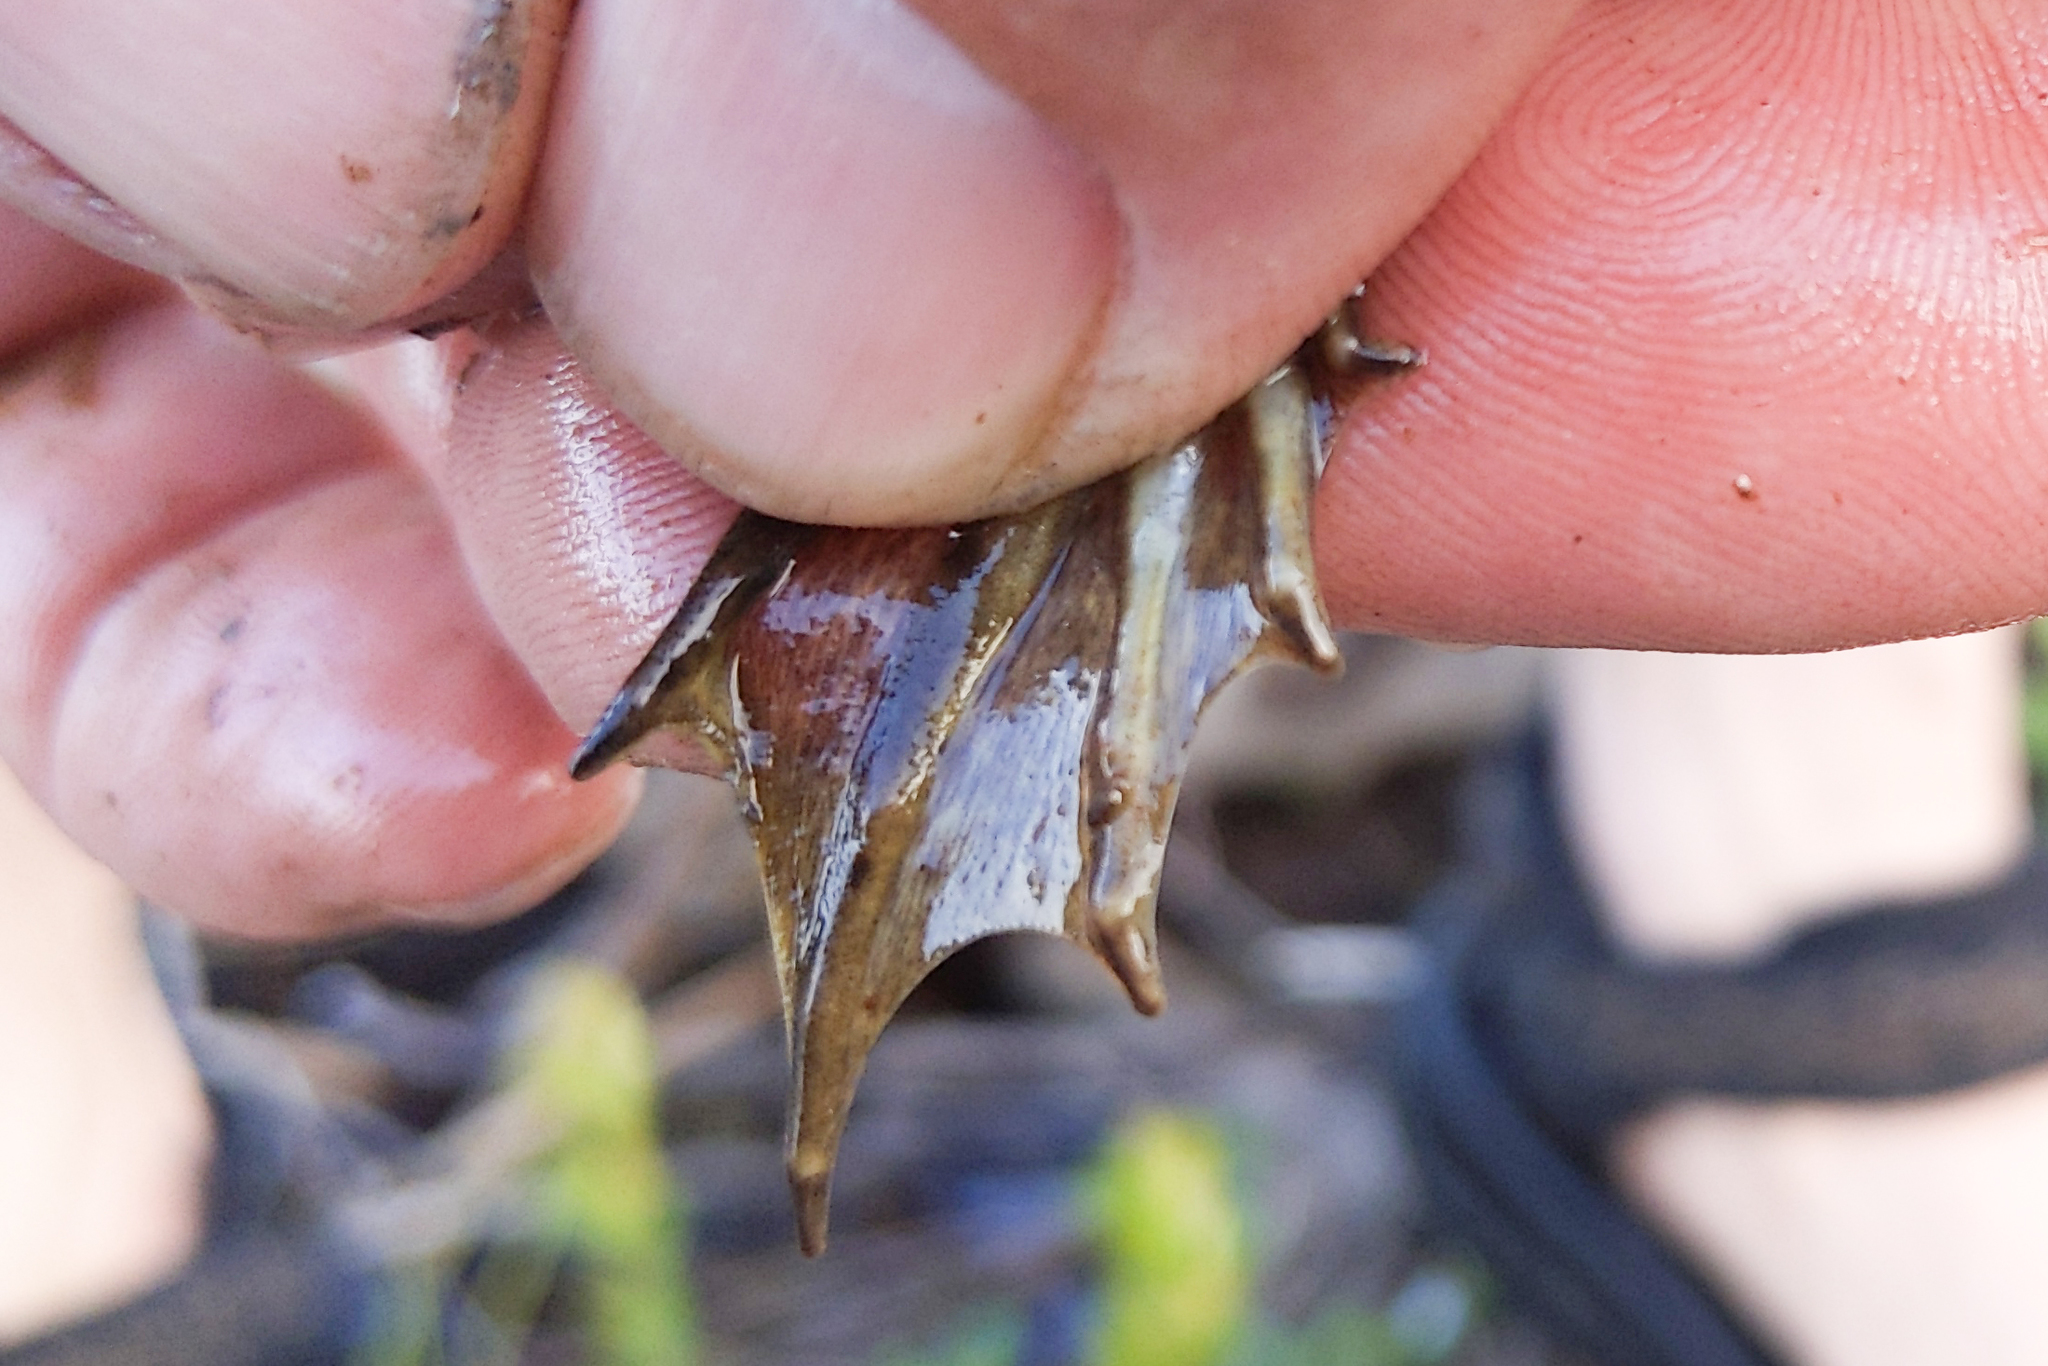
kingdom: Animalia
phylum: Chordata
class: Amphibia
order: Anura
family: Ranidae
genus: Lithobates
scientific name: Lithobates catesbeianus
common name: American bullfrog
